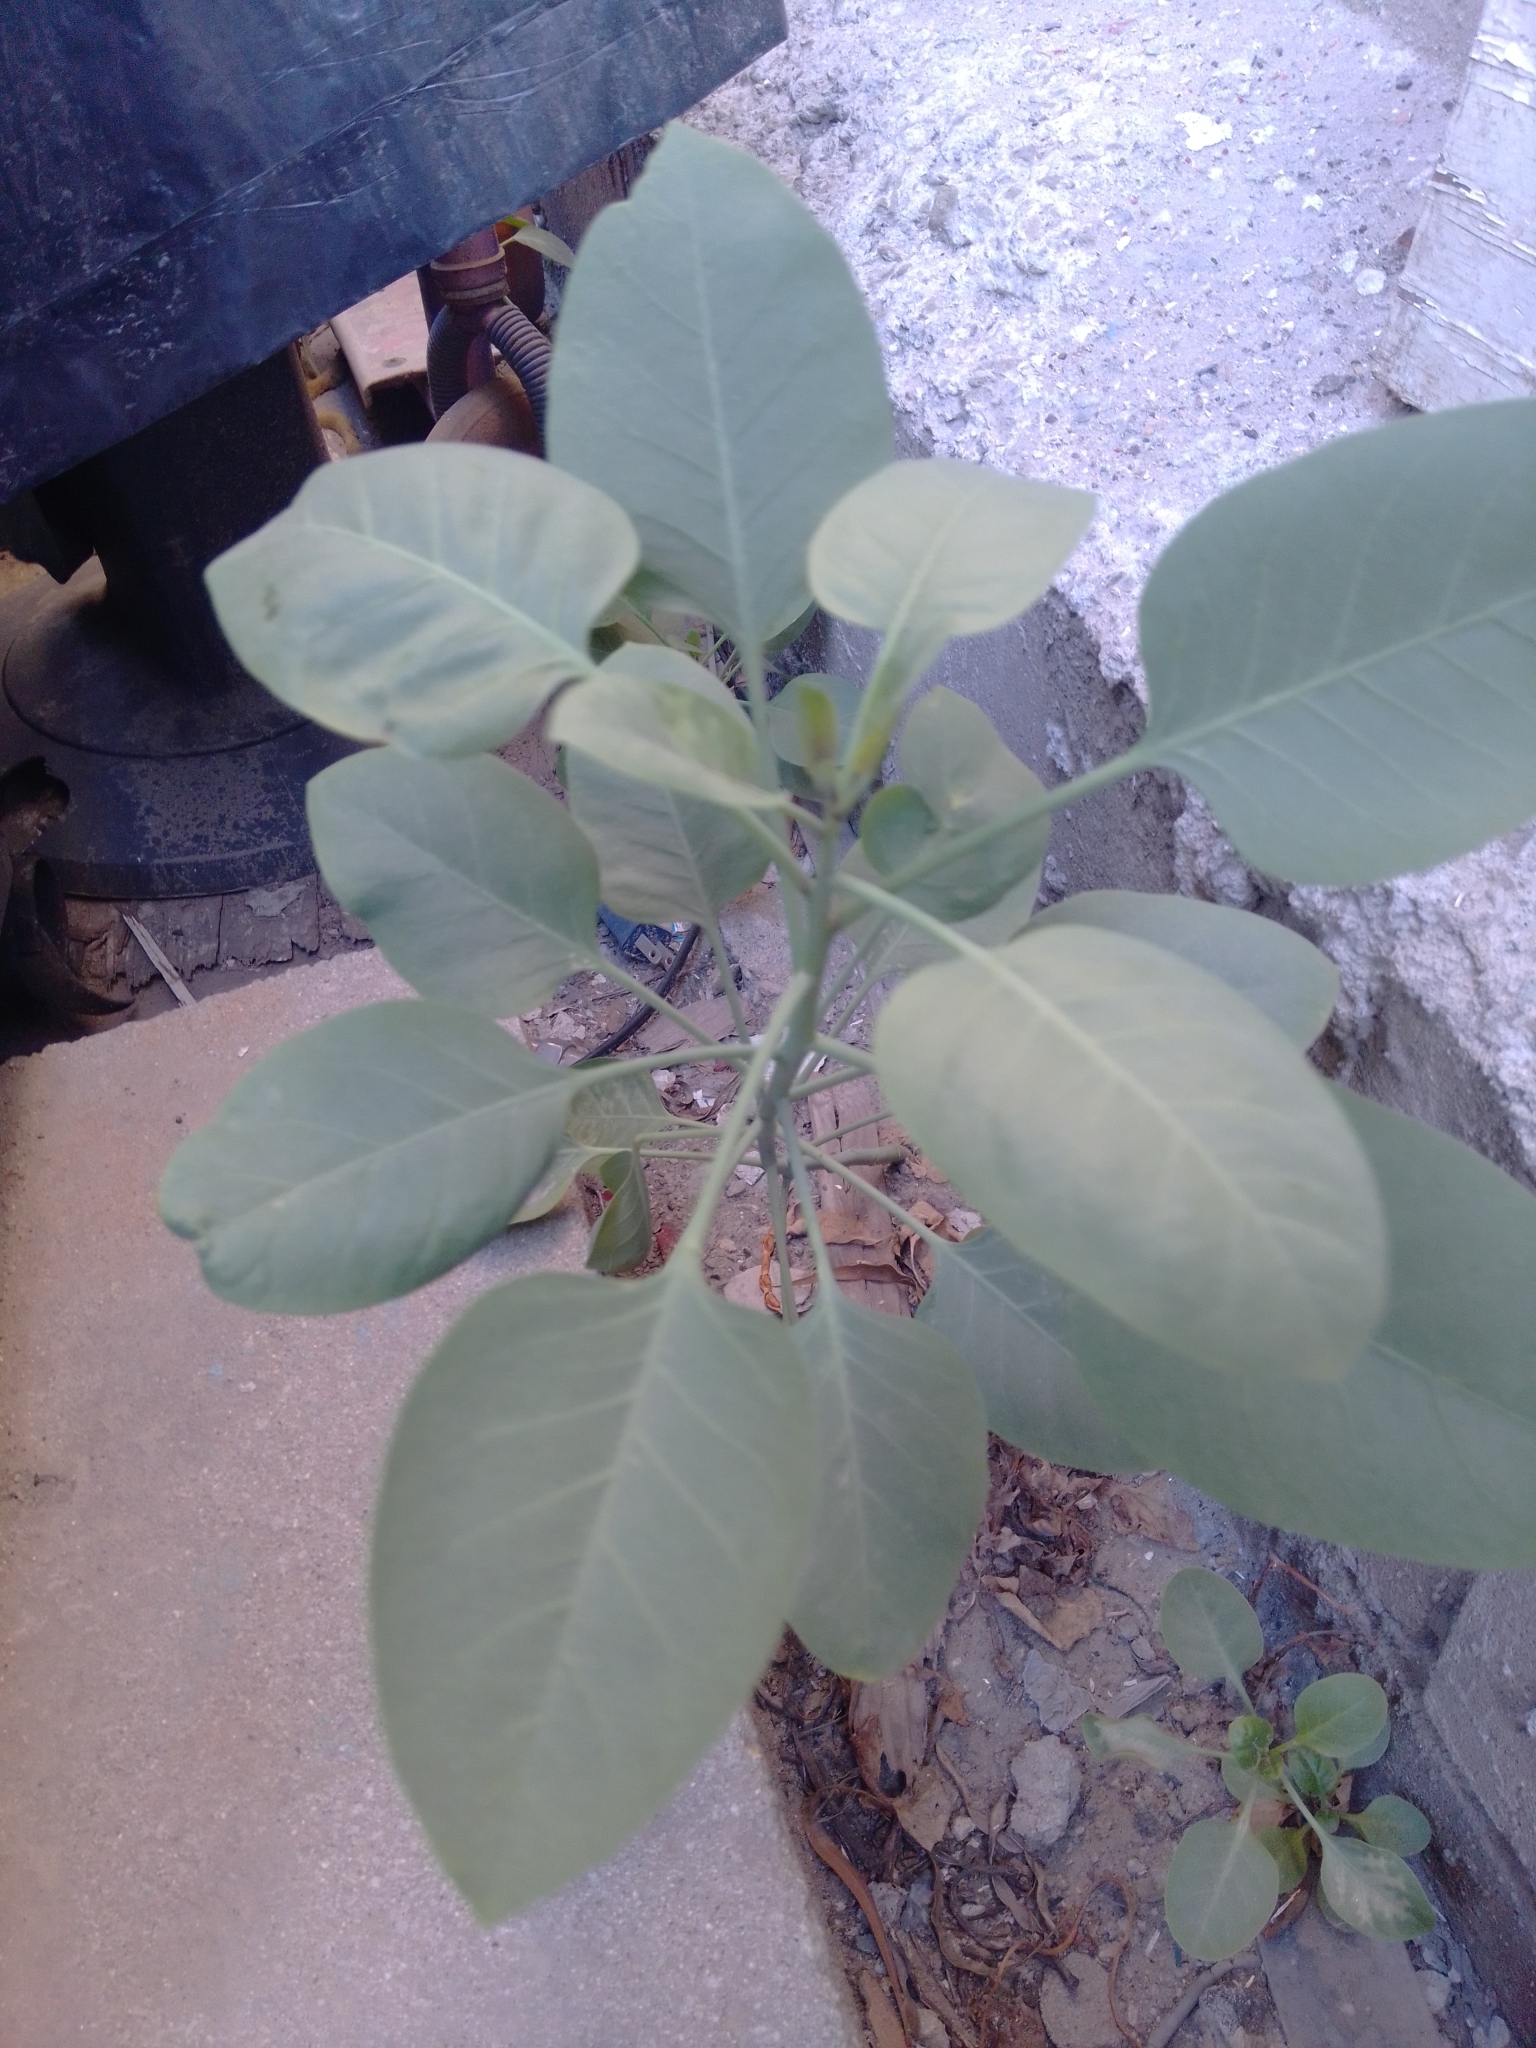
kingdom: Plantae
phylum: Tracheophyta
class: Magnoliopsida
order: Solanales
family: Solanaceae
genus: Nicotiana
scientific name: Nicotiana glauca
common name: Tree tobacco
